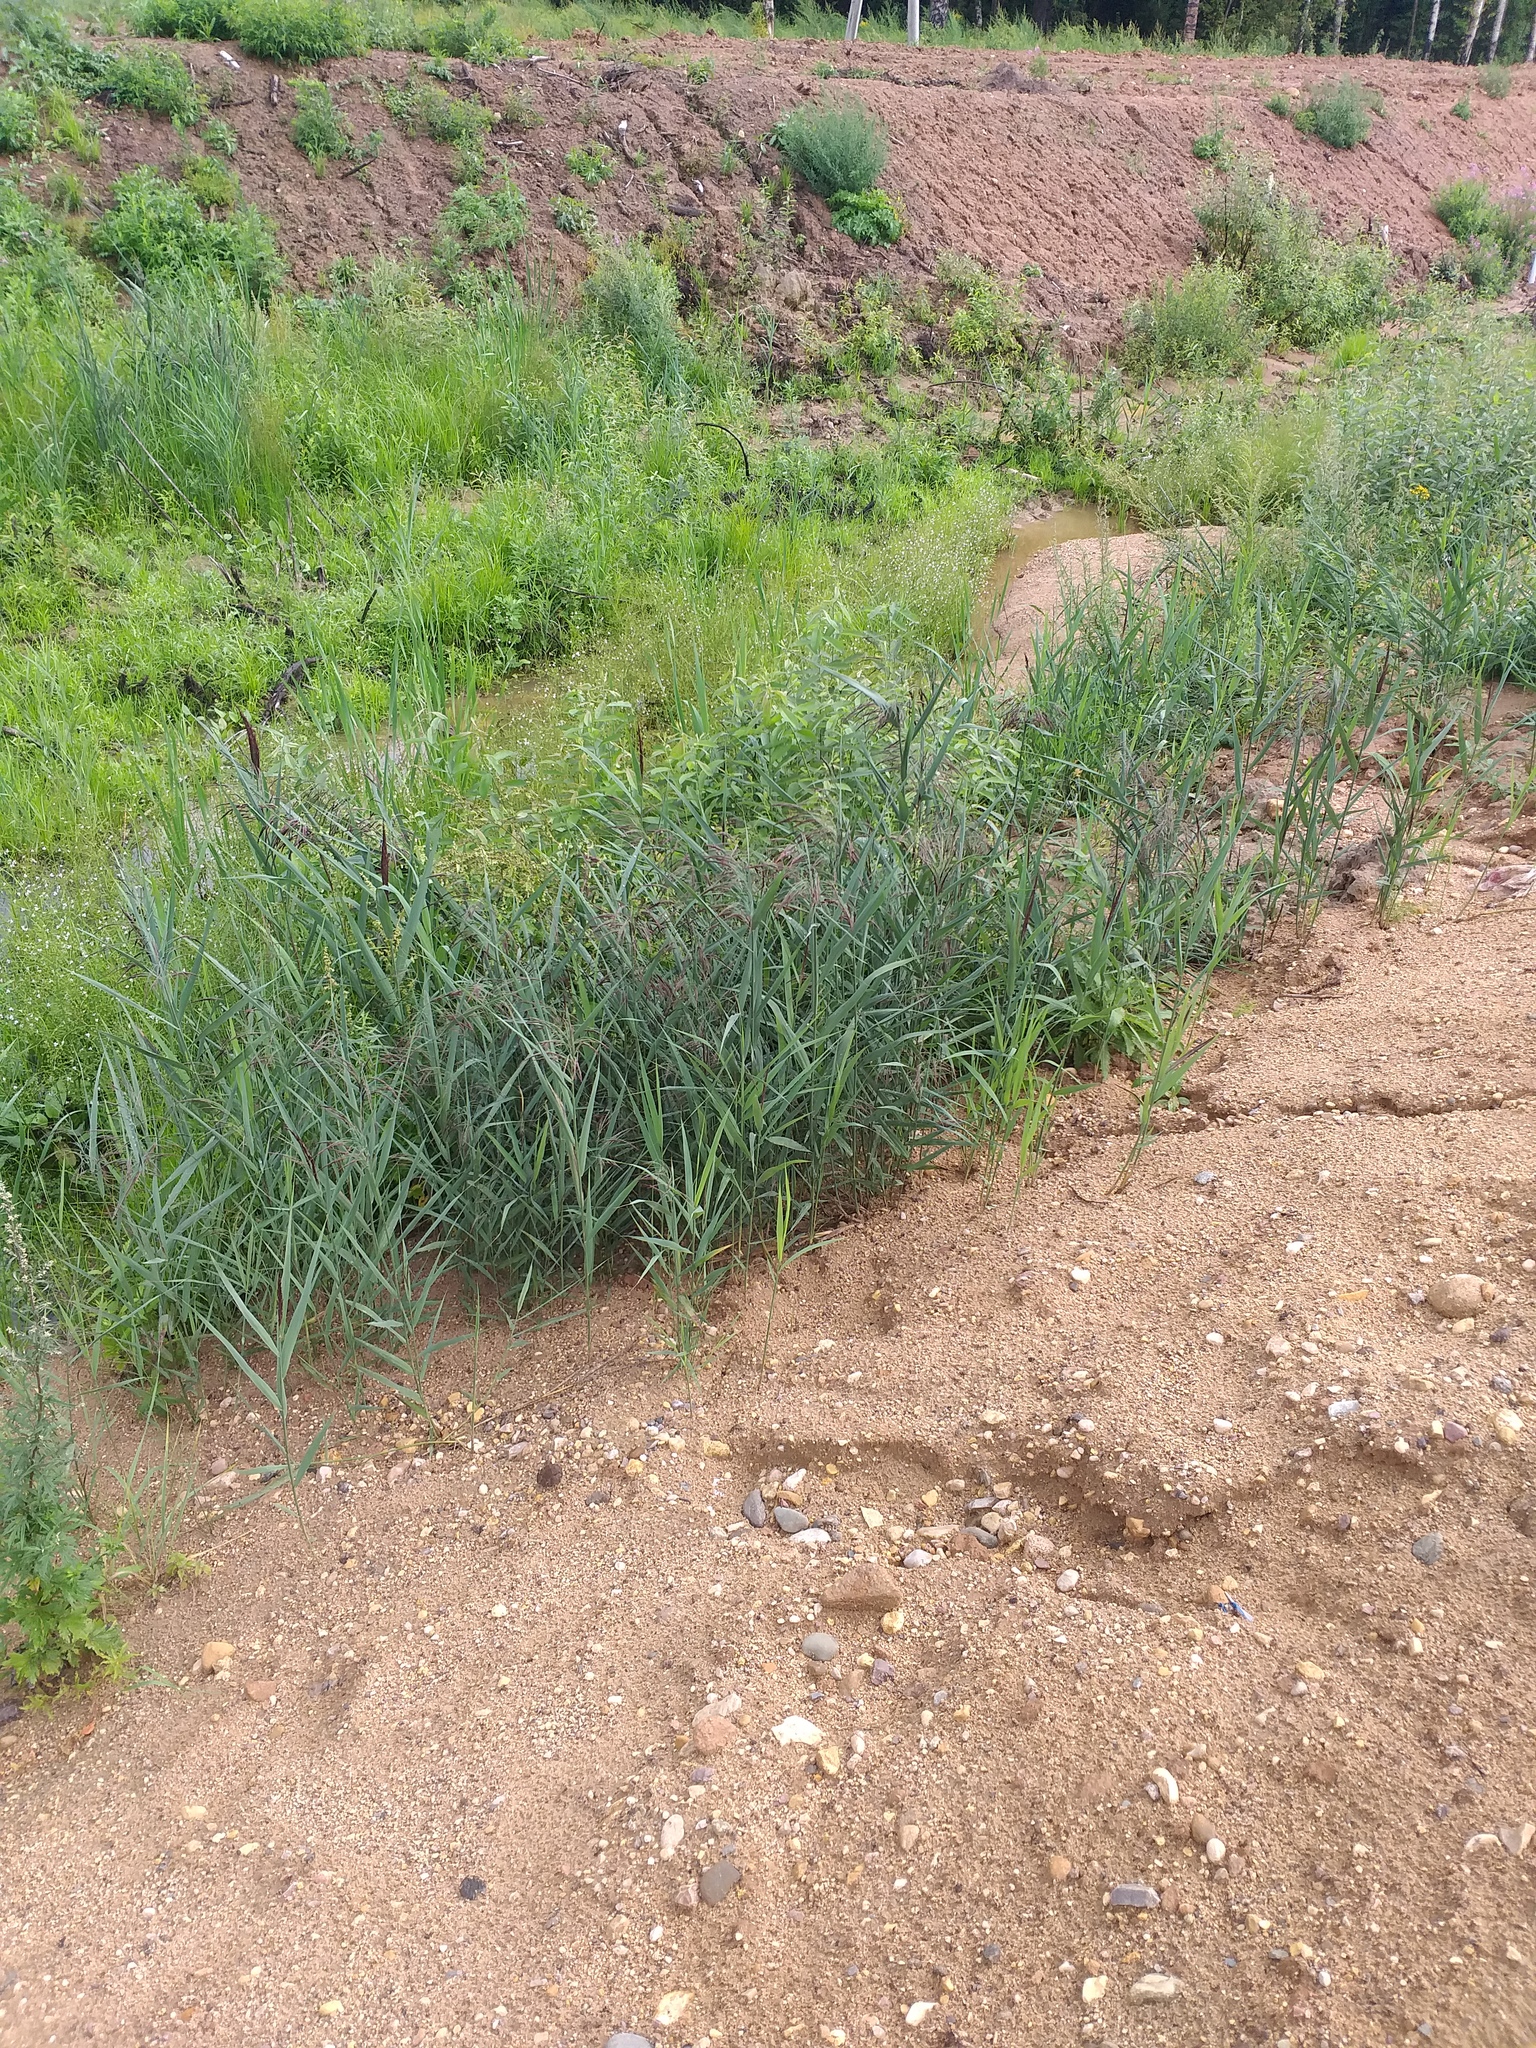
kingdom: Plantae
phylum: Tracheophyta
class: Liliopsida
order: Poales
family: Poaceae
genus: Phragmites
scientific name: Phragmites australis
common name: Common reed
